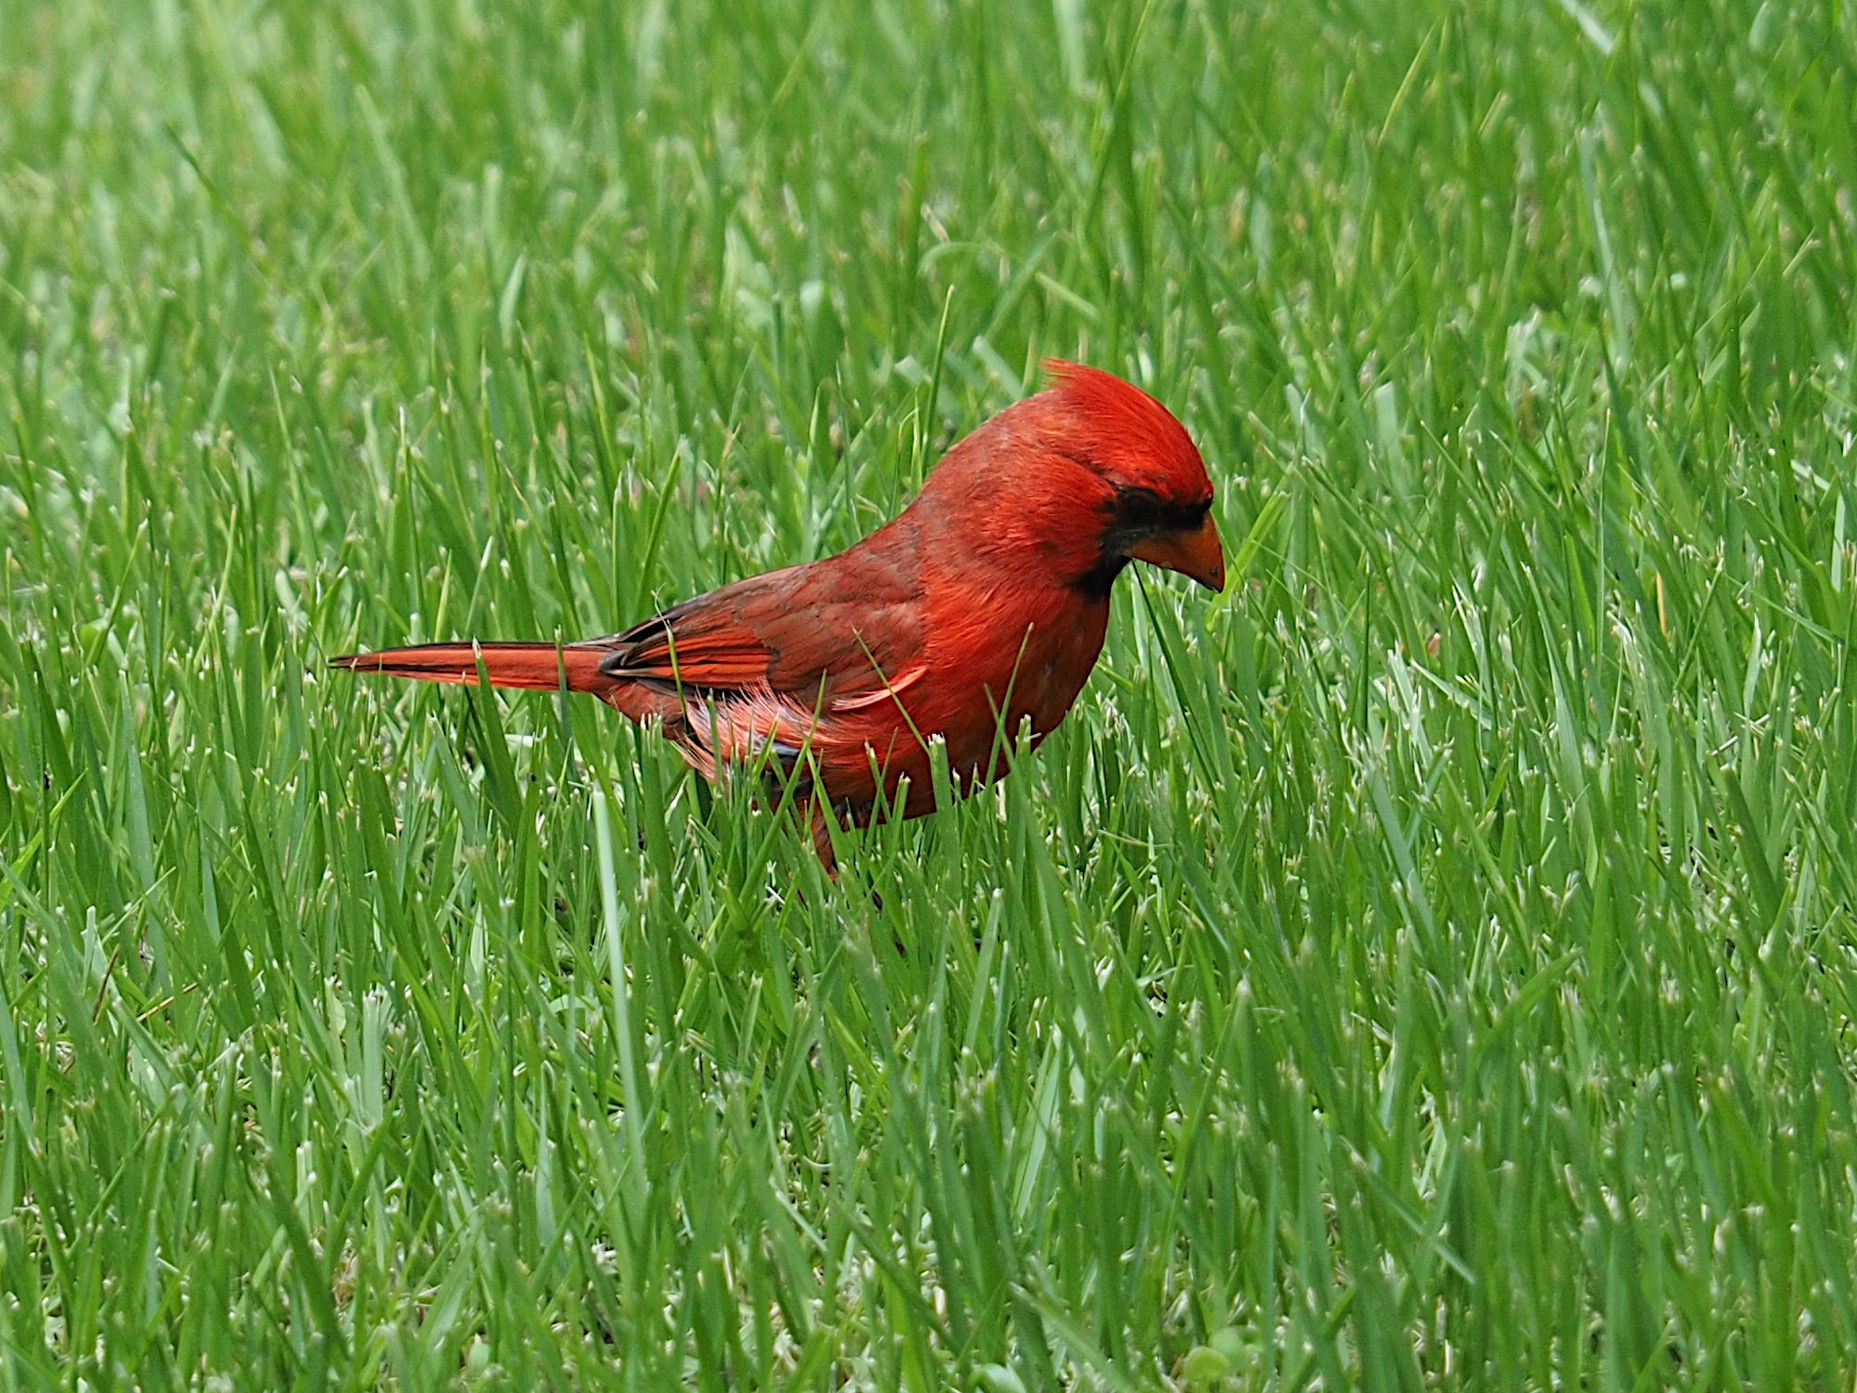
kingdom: Animalia
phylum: Chordata
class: Aves
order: Passeriformes
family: Cardinalidae
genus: Cardinalis
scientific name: Cardinalis cardinalis
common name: Northern cardinal
